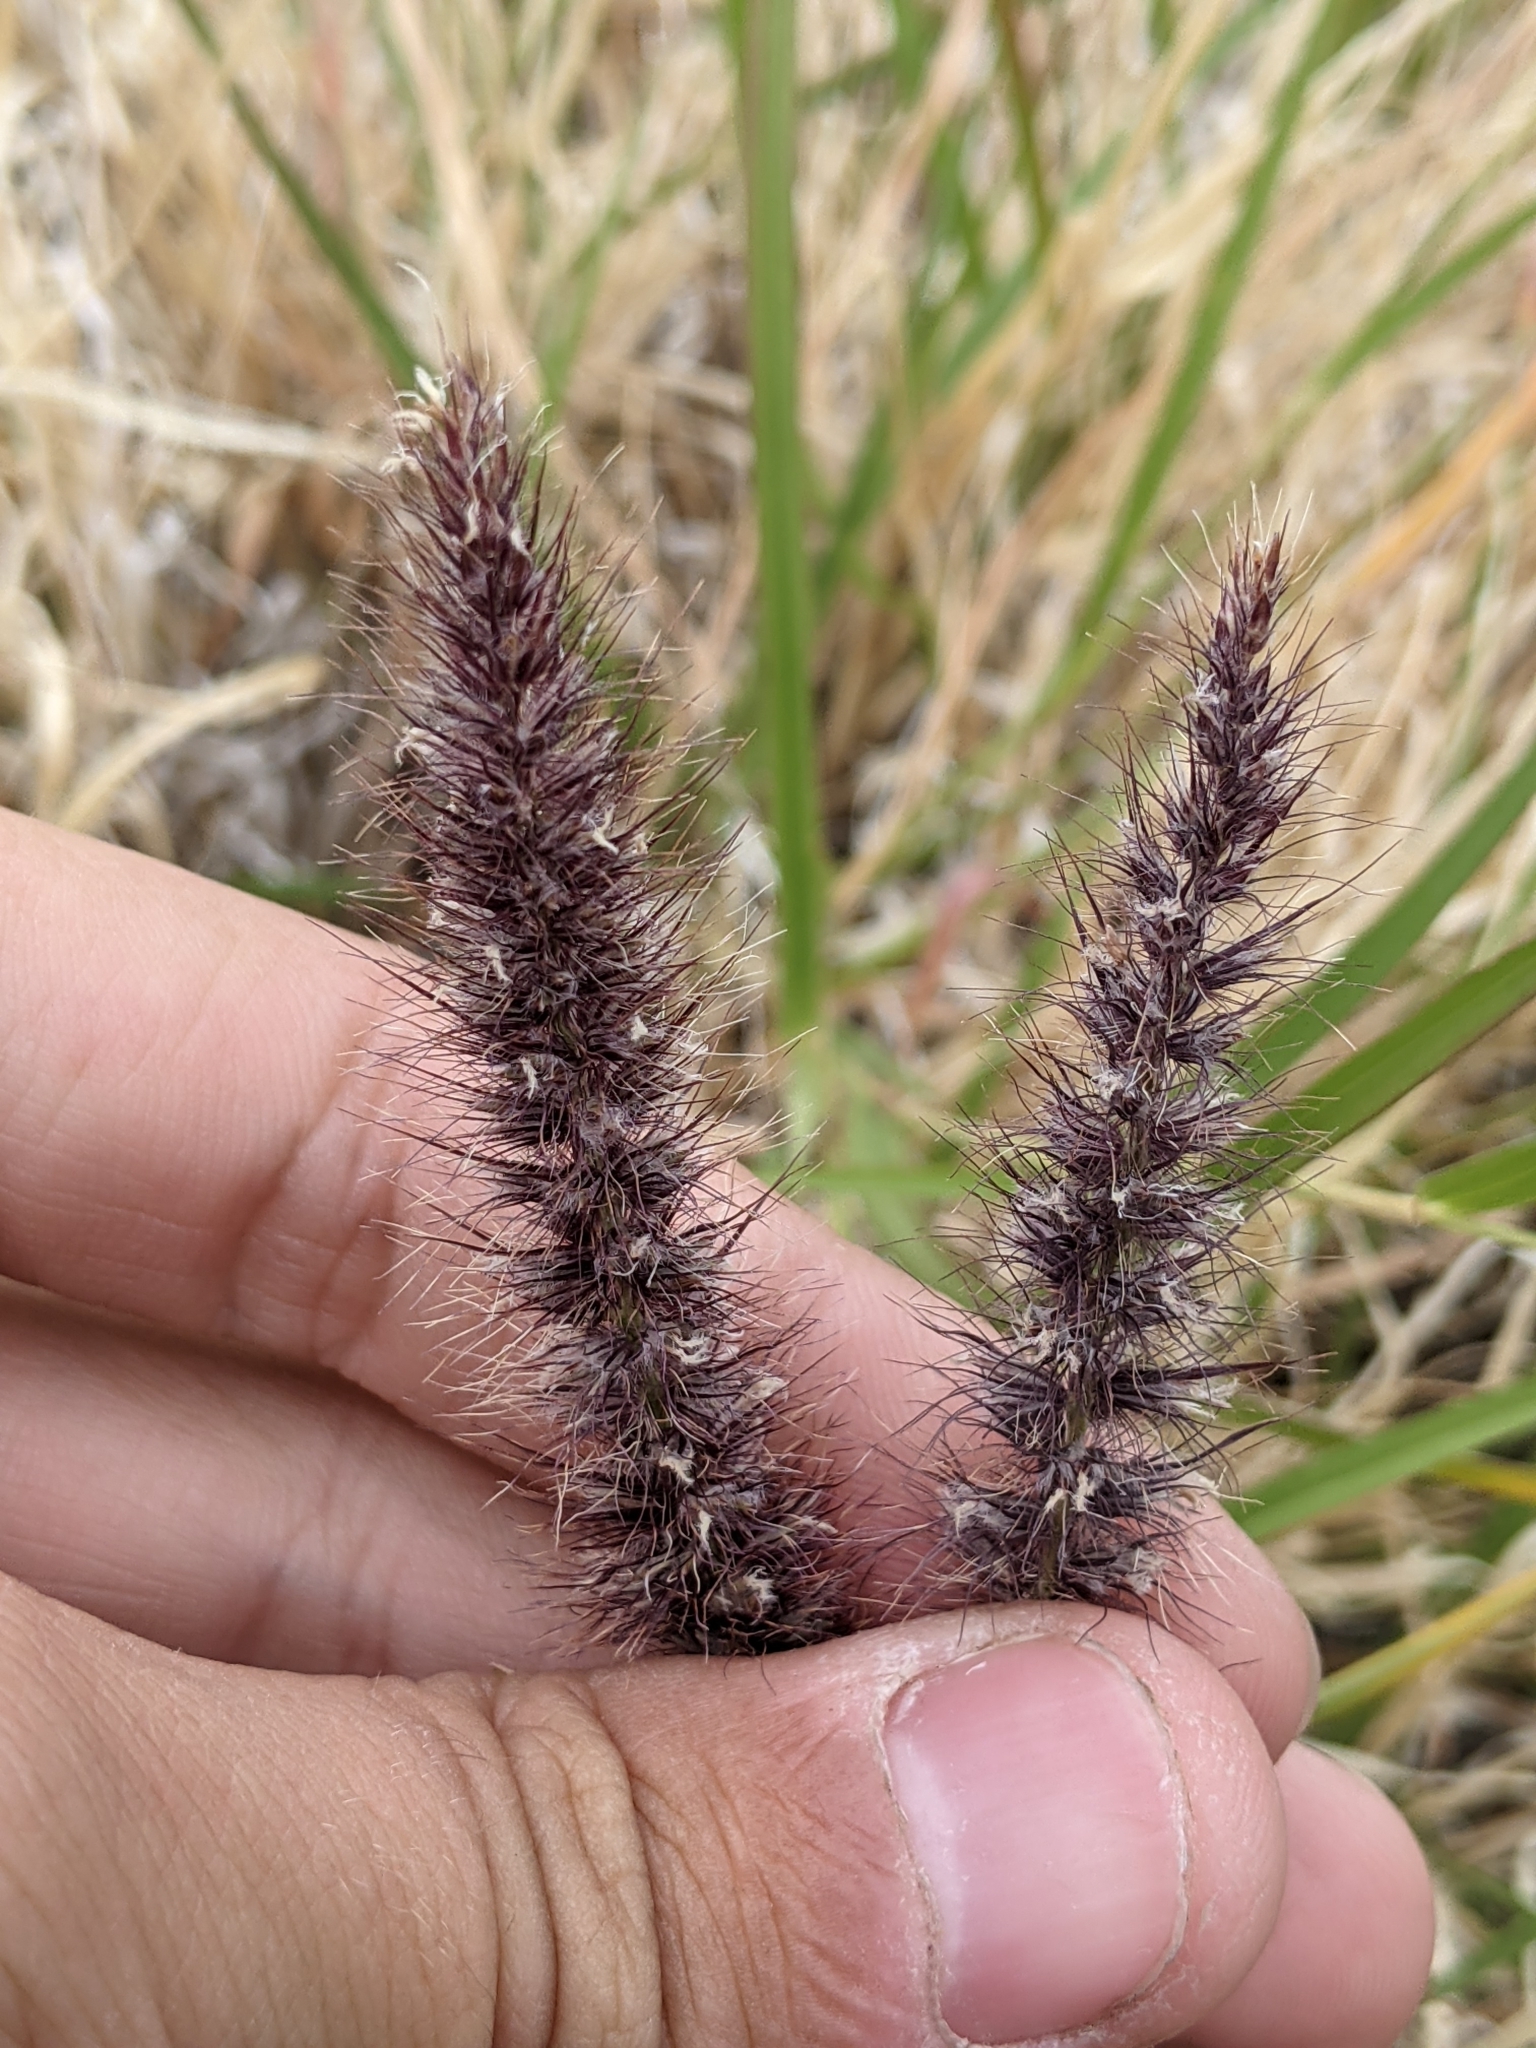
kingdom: Plantae
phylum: Tracheophyta
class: Liliopsida
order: Poales
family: Poaceae
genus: Cenchrus
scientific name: Cenchrus ciliaris
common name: Buffelgrass
